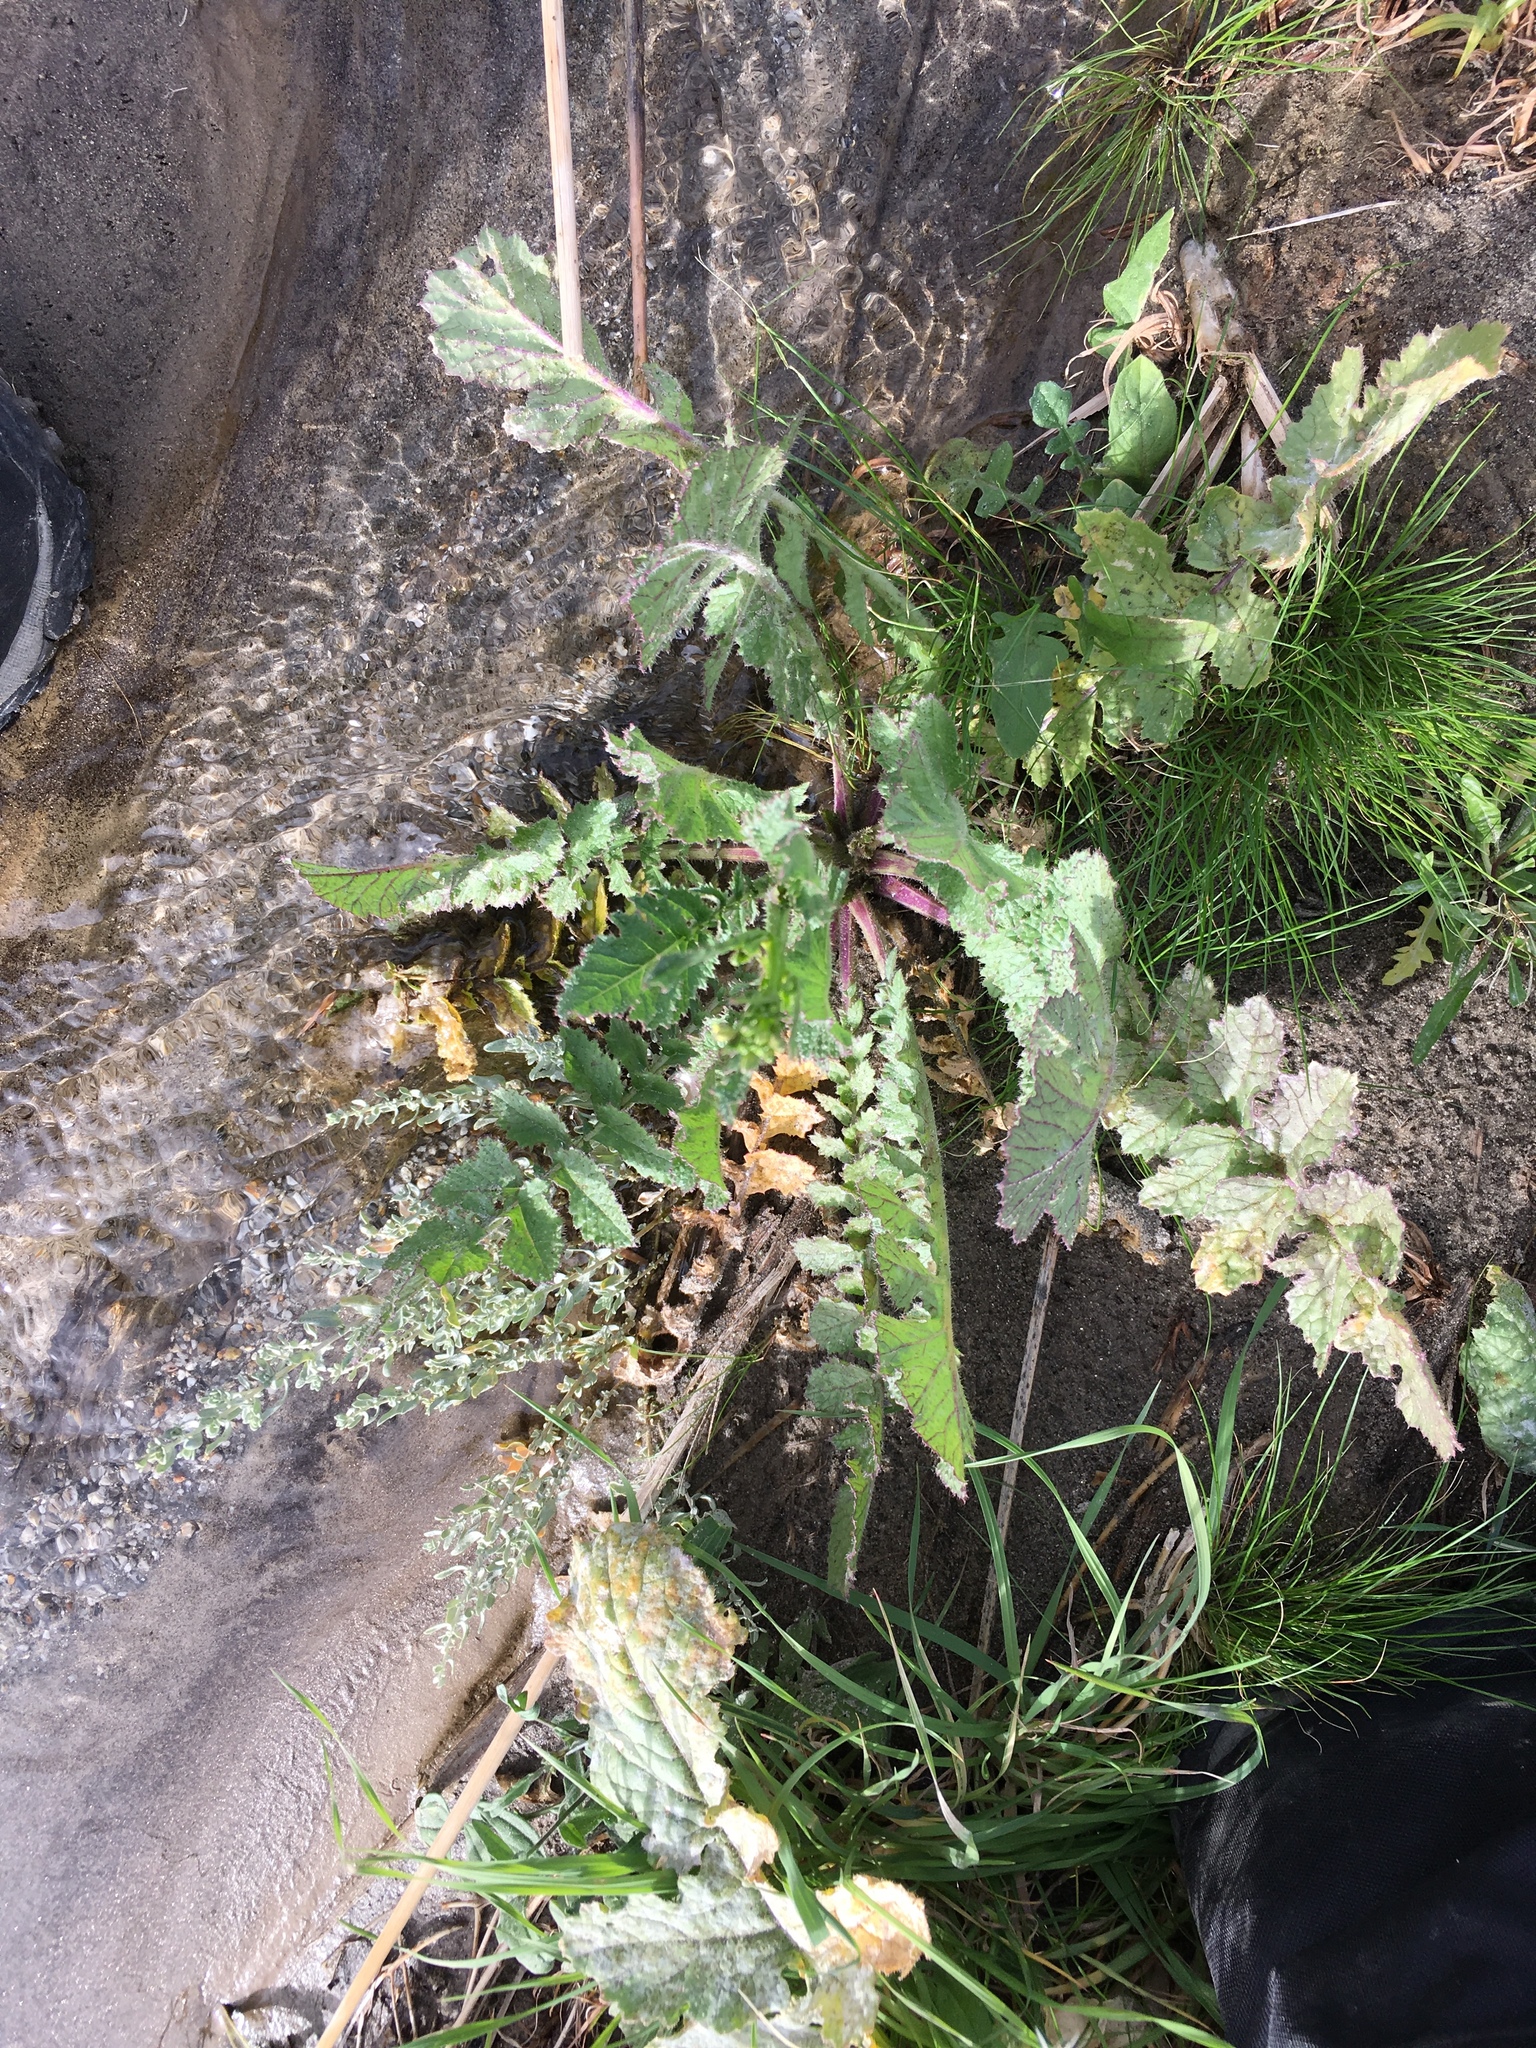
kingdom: Plantae
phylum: Tracheophyta
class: Magnoliopsida
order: Brassicales
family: Brassicaceae
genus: Brassica
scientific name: Brassica tournefortii
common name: Pale cabbage
